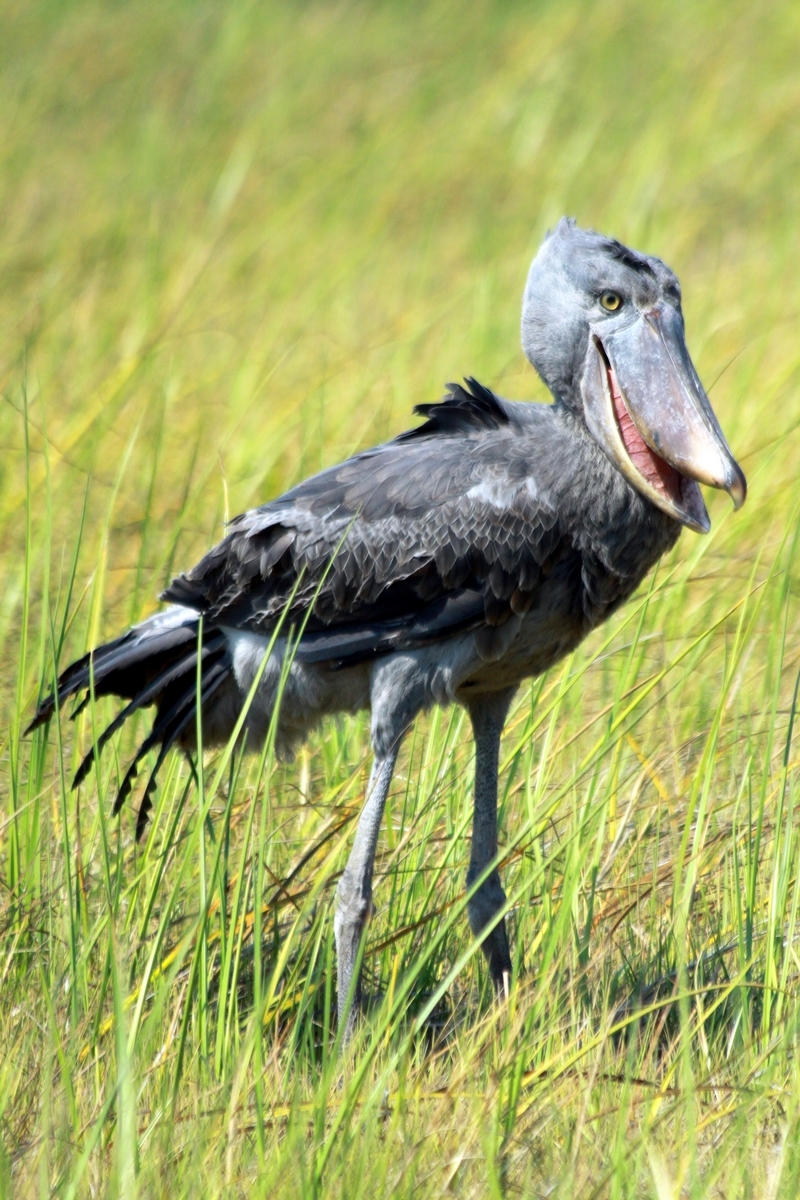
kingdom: Animalia
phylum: Chordata
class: Aves
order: Pelecaniformes
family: Balaenicipitidae
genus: Balaeniceps
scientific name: Balaeniceps rex
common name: Shoebill
